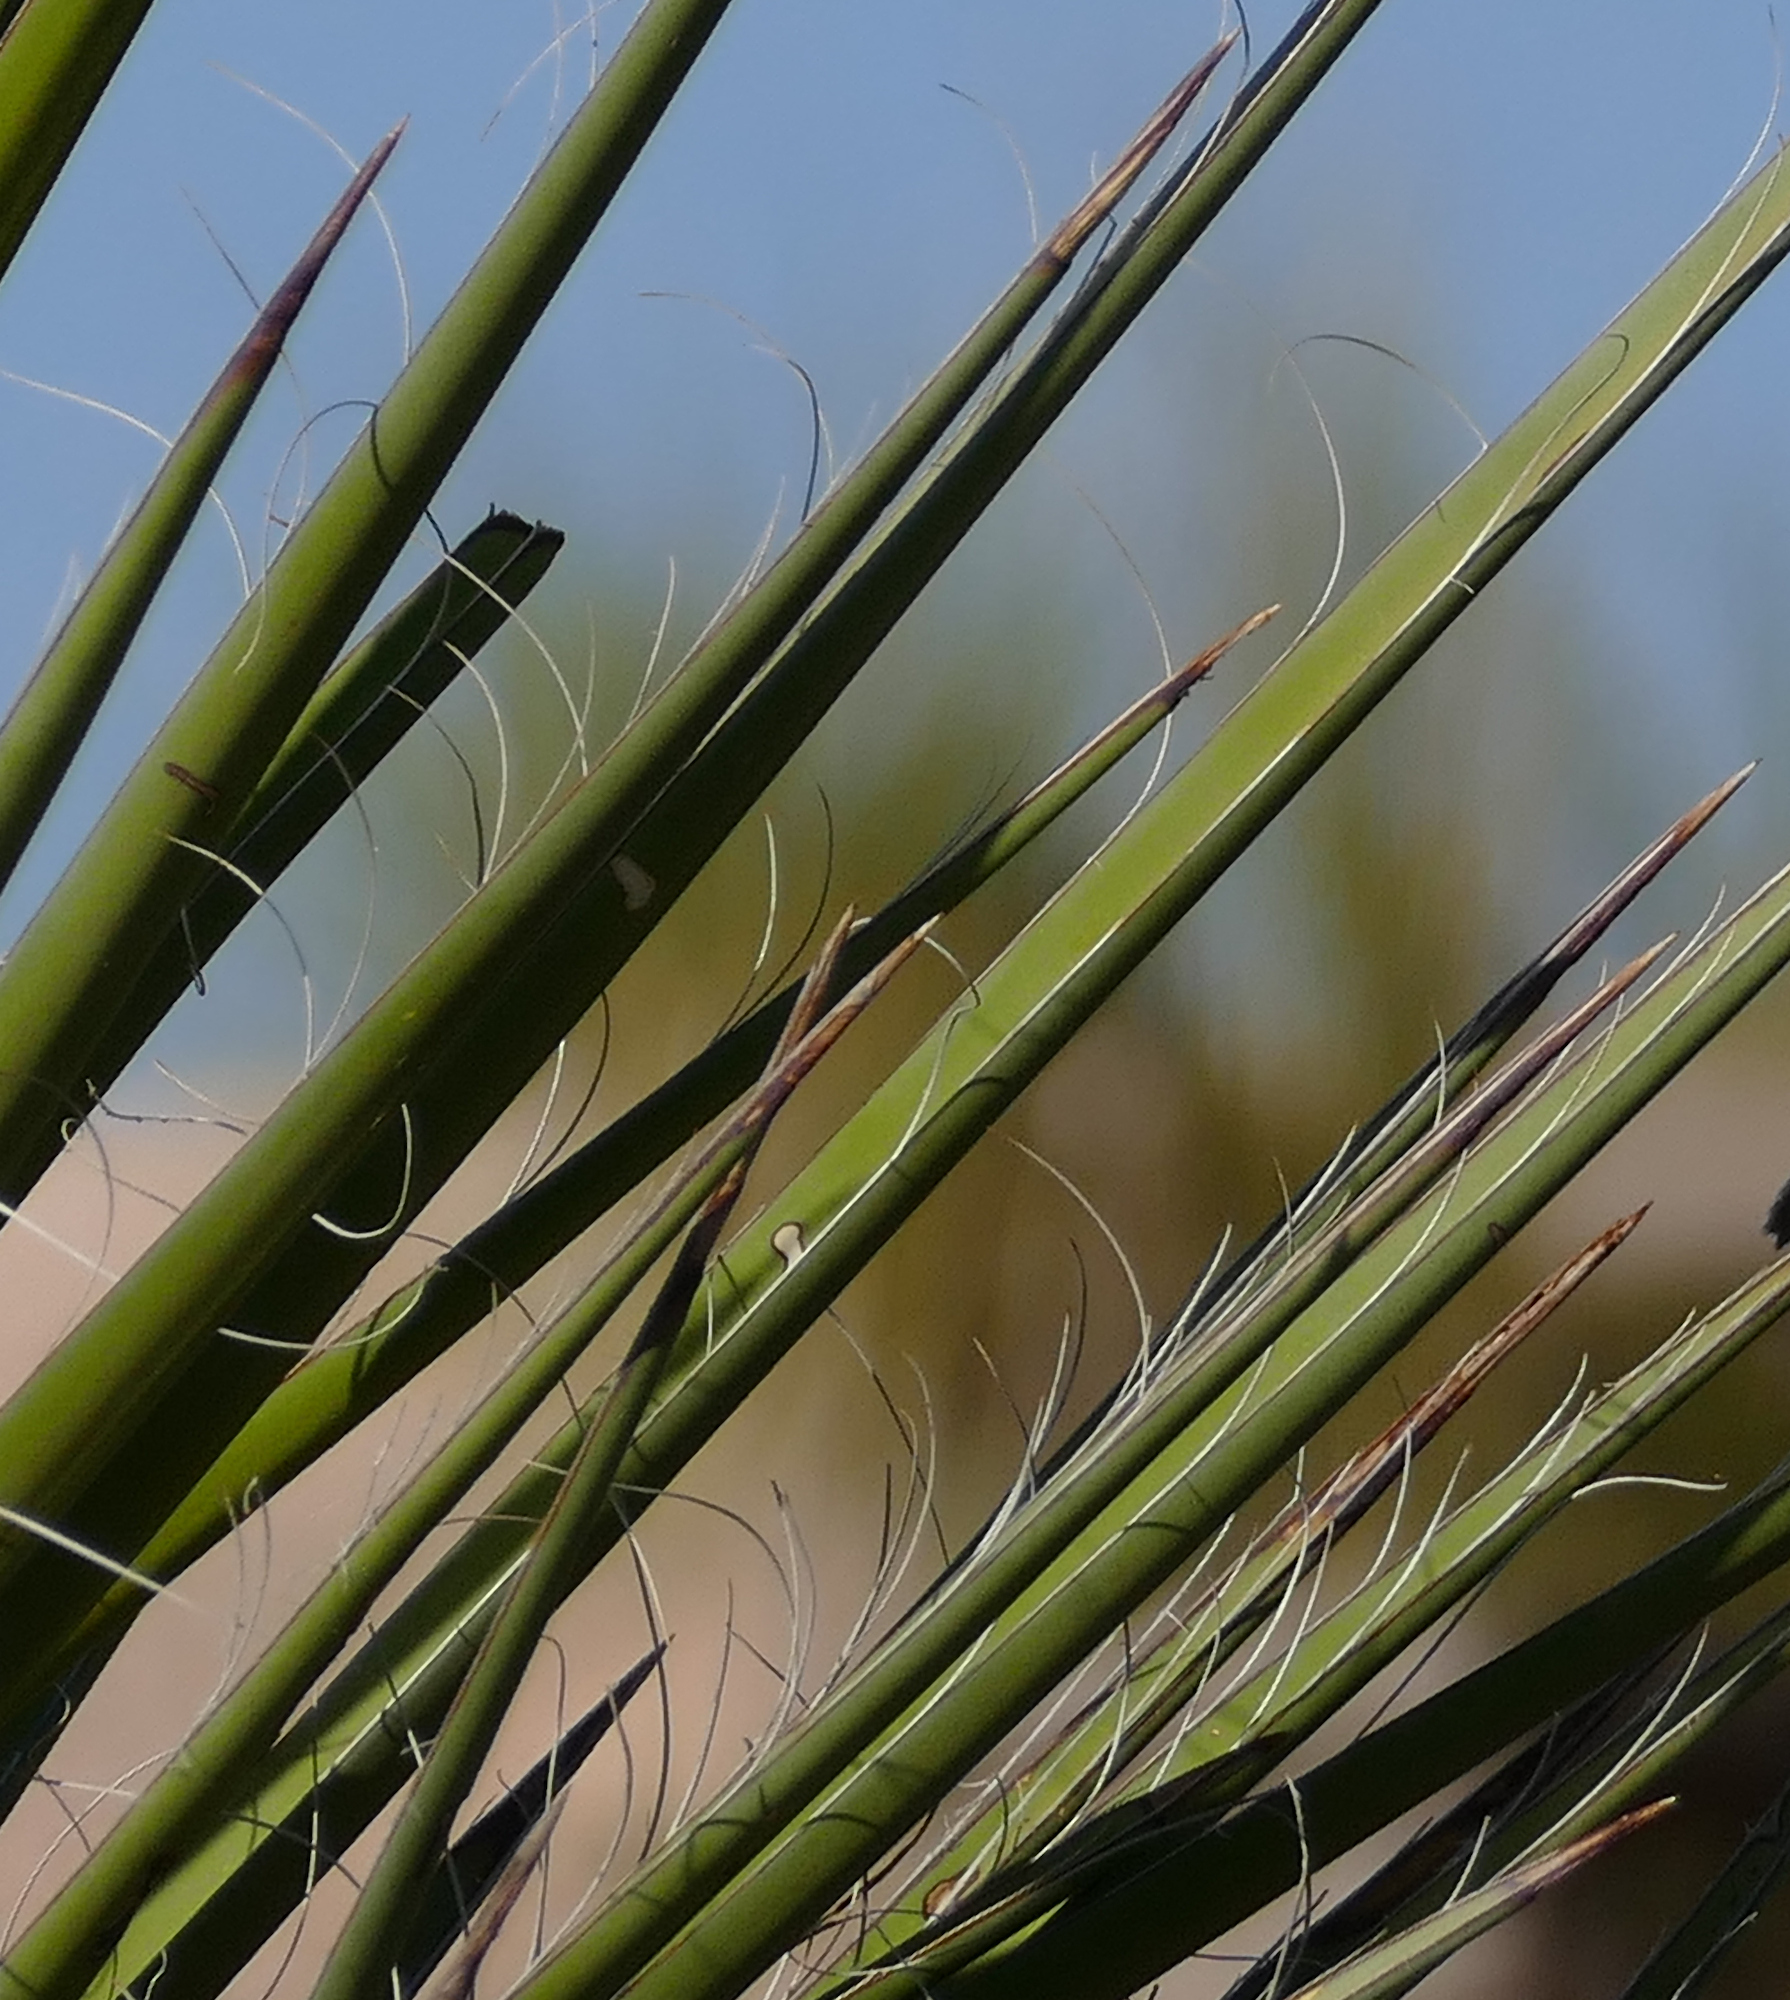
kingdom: Plantae
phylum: Tracheophyta
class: Liliopsida
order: Asparagales
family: Asparagaceae
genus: Yucca
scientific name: Yucca faxoniana
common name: Spanish dagger
